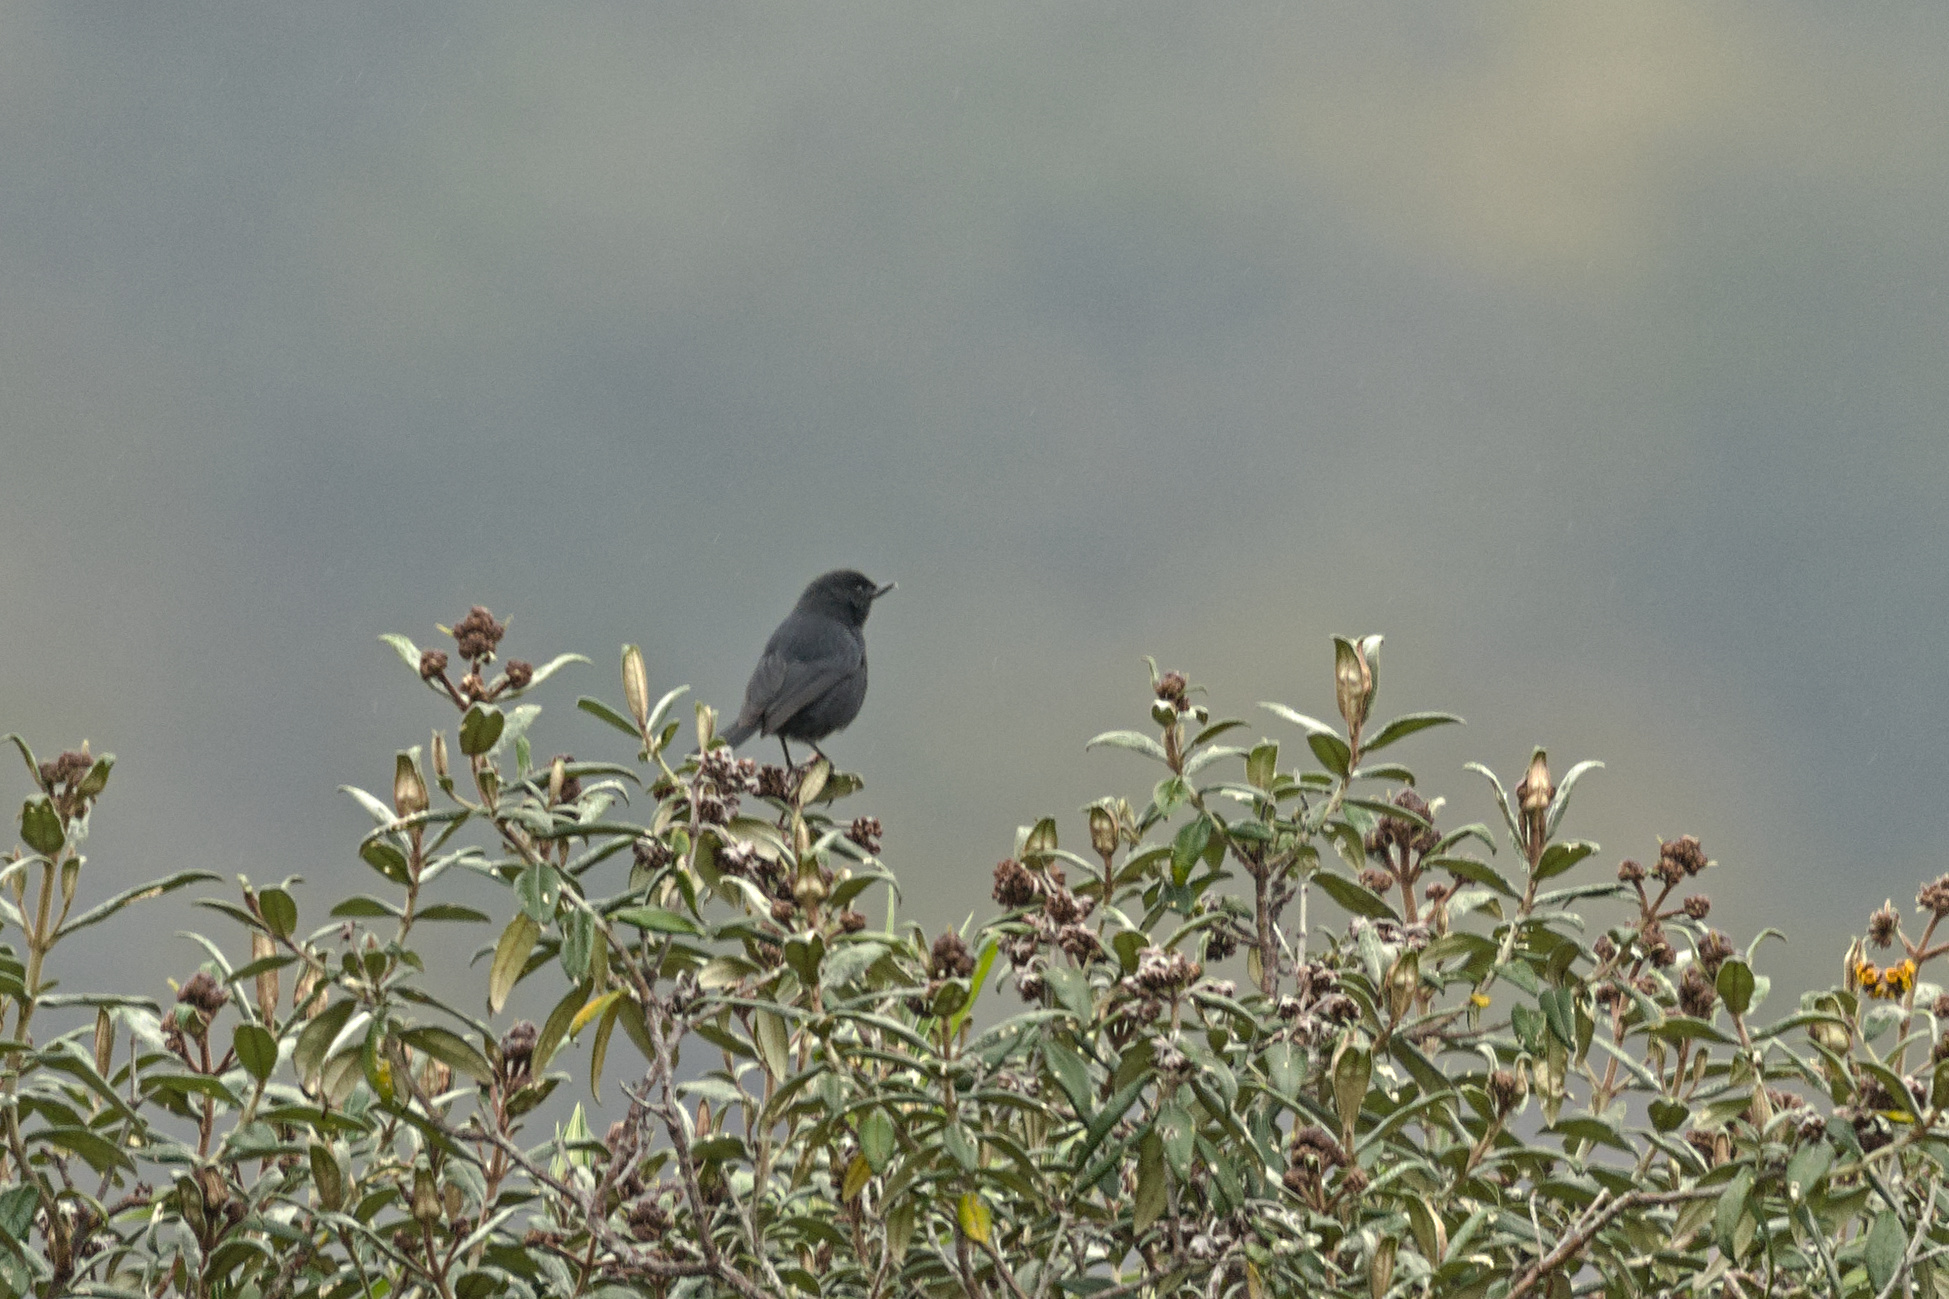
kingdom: Animalia
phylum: Chordata
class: Aves
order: Passeriformes
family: Thraupidae
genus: Diglossa
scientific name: Diglossa humeralis
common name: Black flowerpiercer
